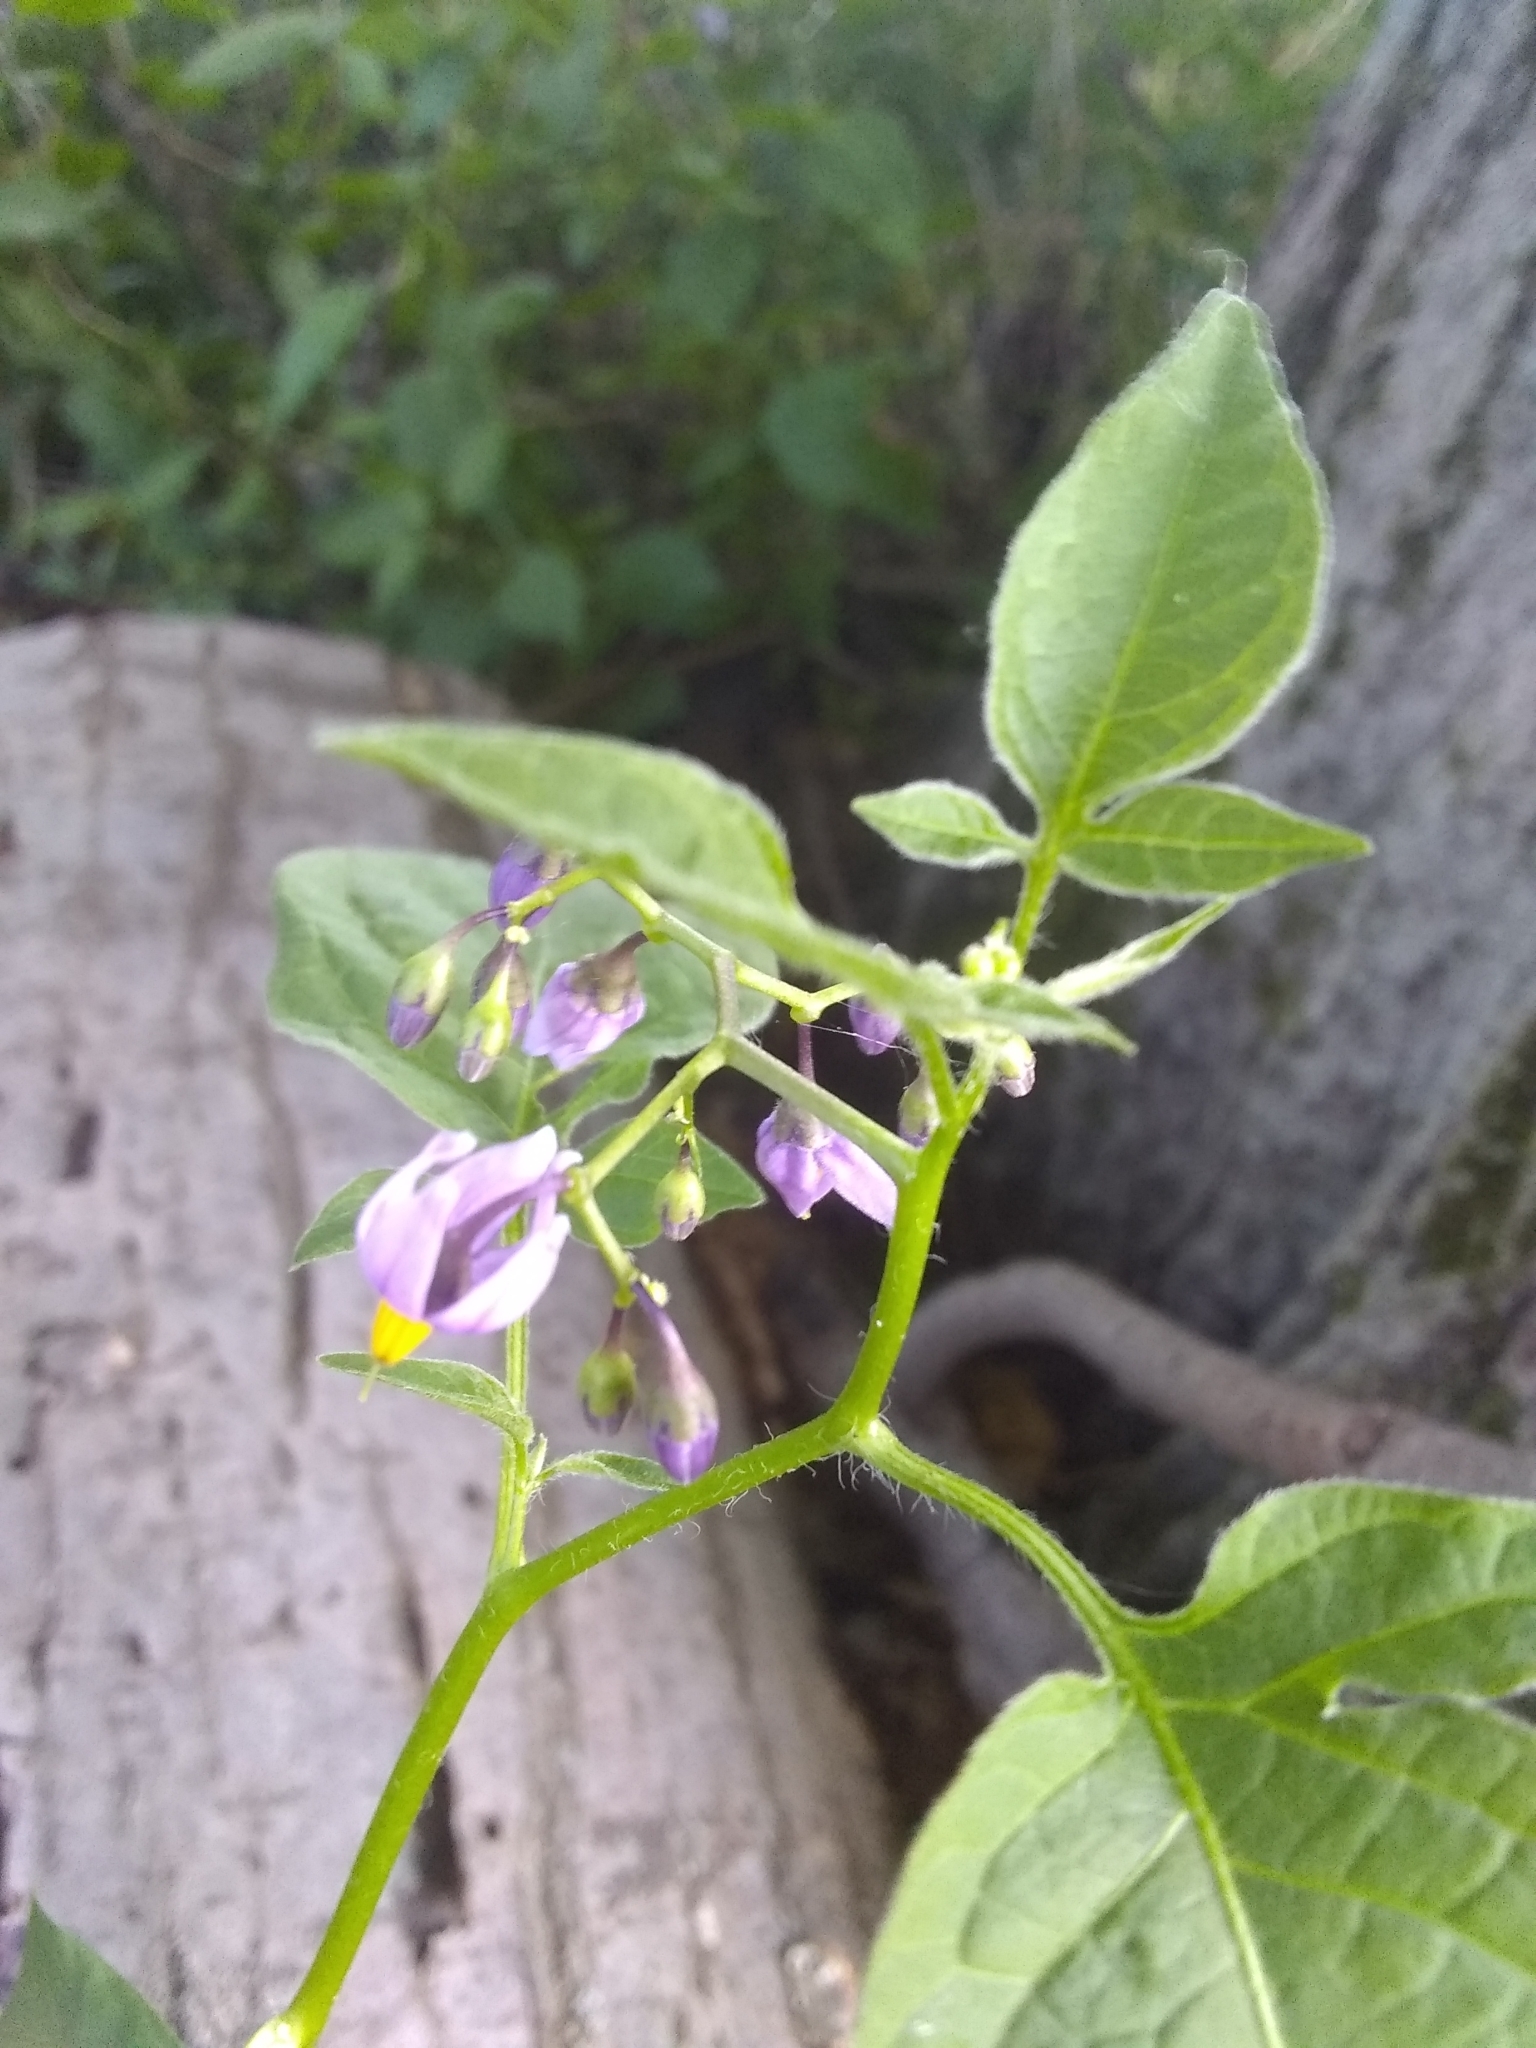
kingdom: Plantae
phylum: Tracheophyta
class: Magnoliopsida
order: Solanales
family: Solanaceae
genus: Solanum
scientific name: Solanum dulcamara
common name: Climbing nightshade
